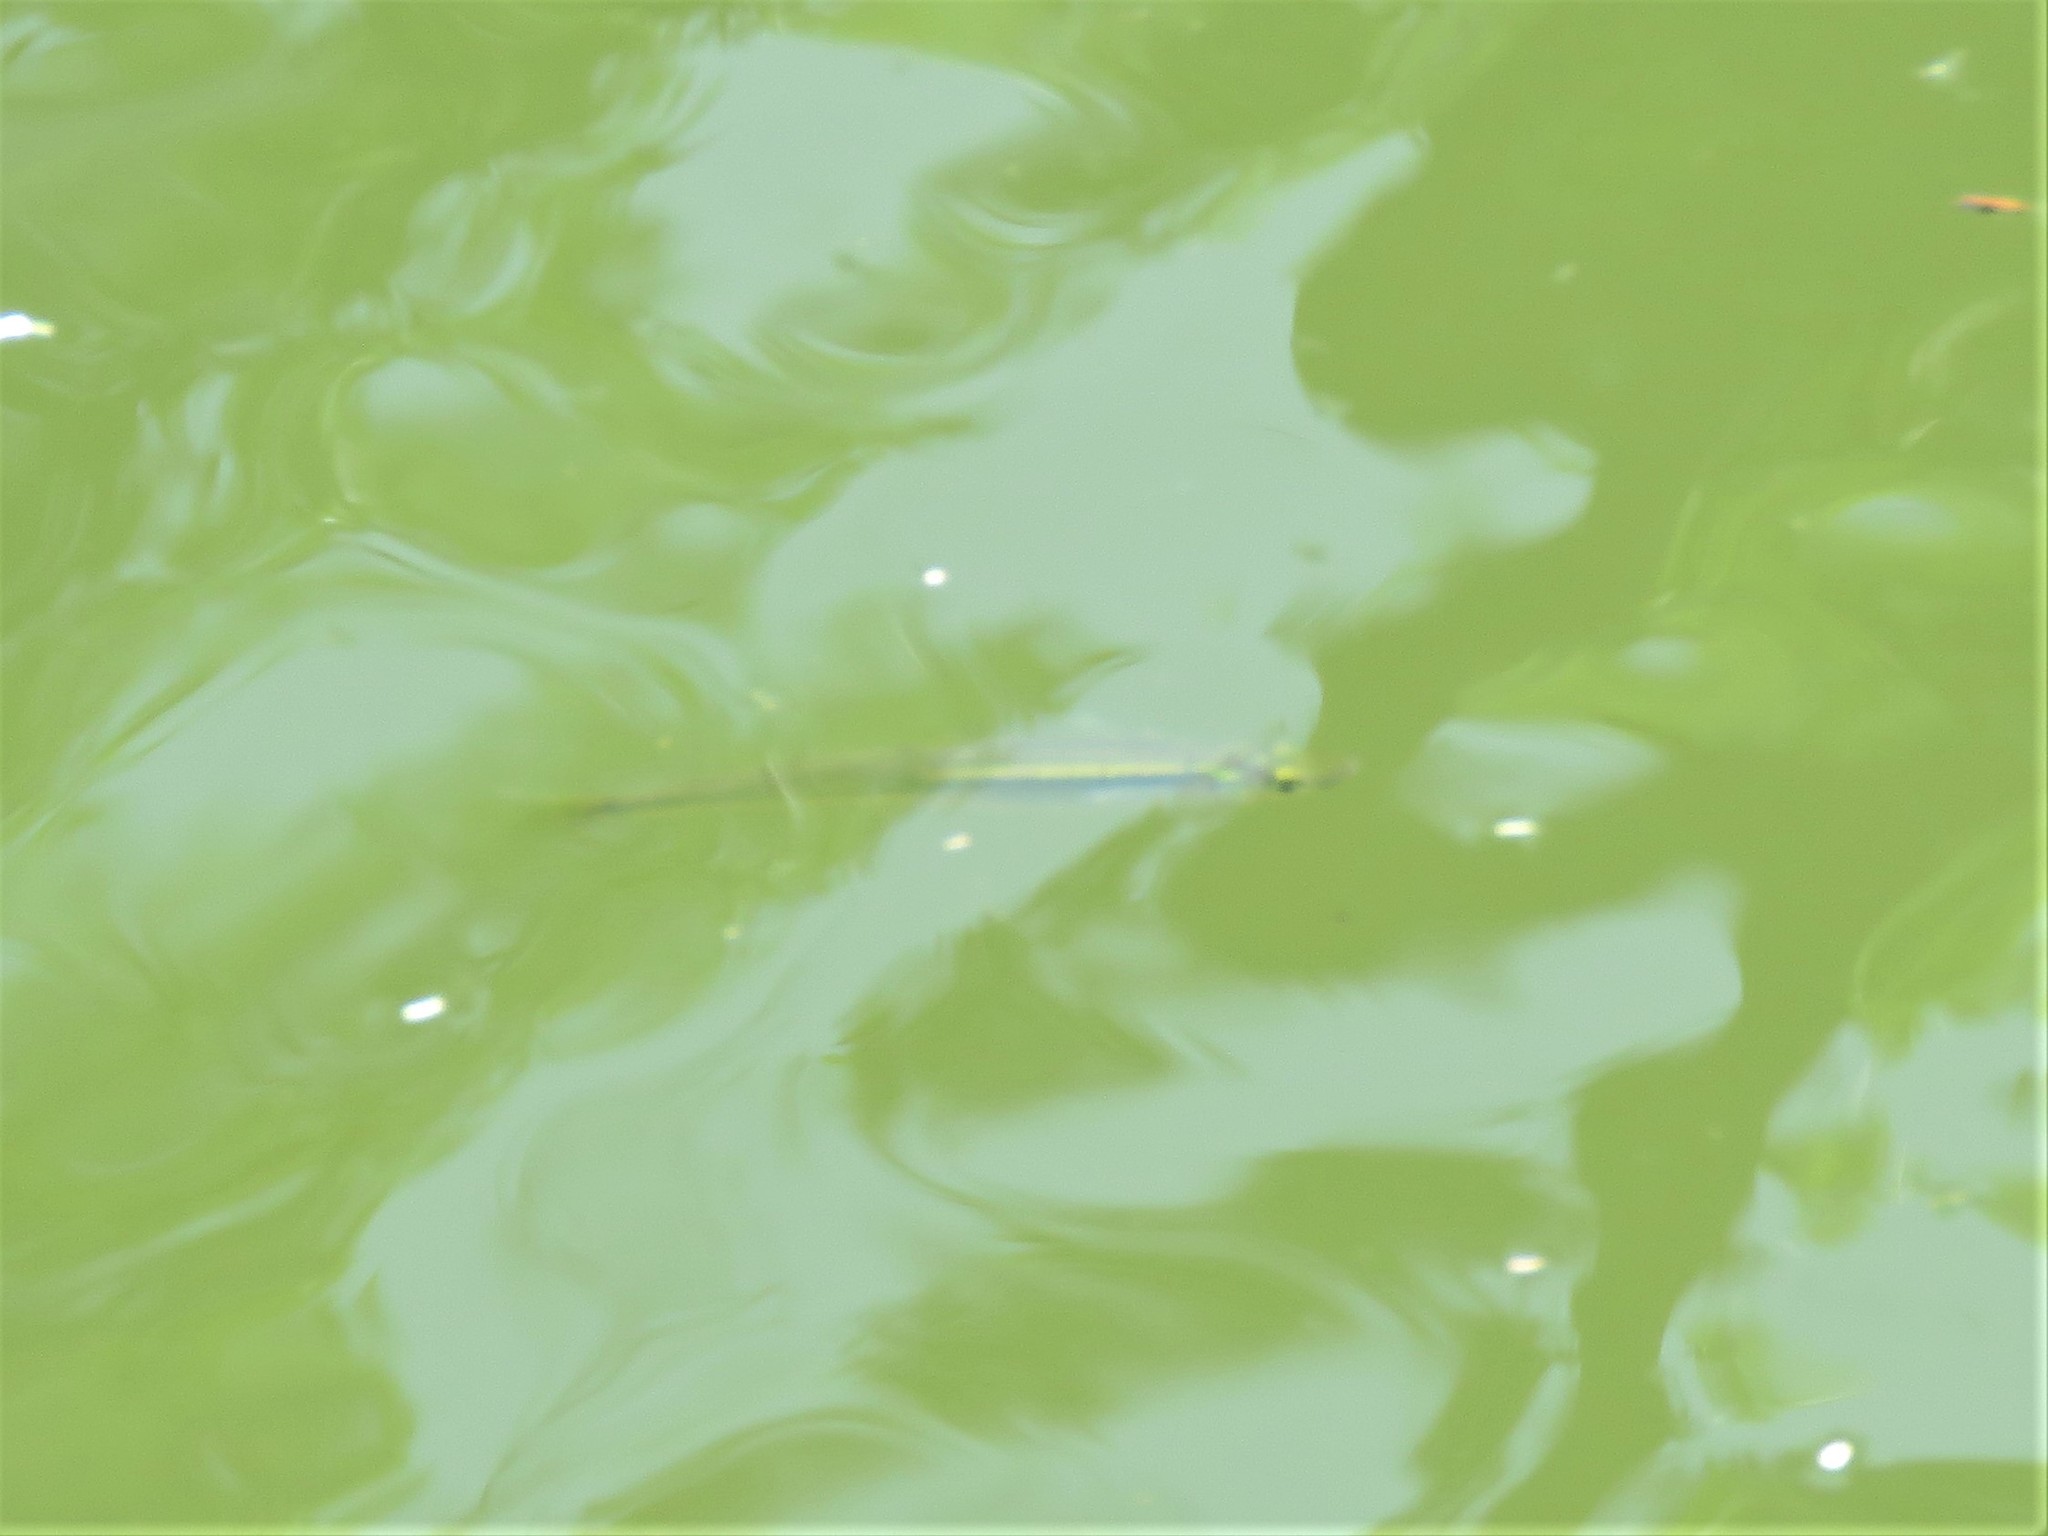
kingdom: Animalia
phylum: Chordata
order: Cyprinodontiformes
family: Fundulidae
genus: Fundulus
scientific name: Fundulus notatus
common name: Blackstripe topminnow
